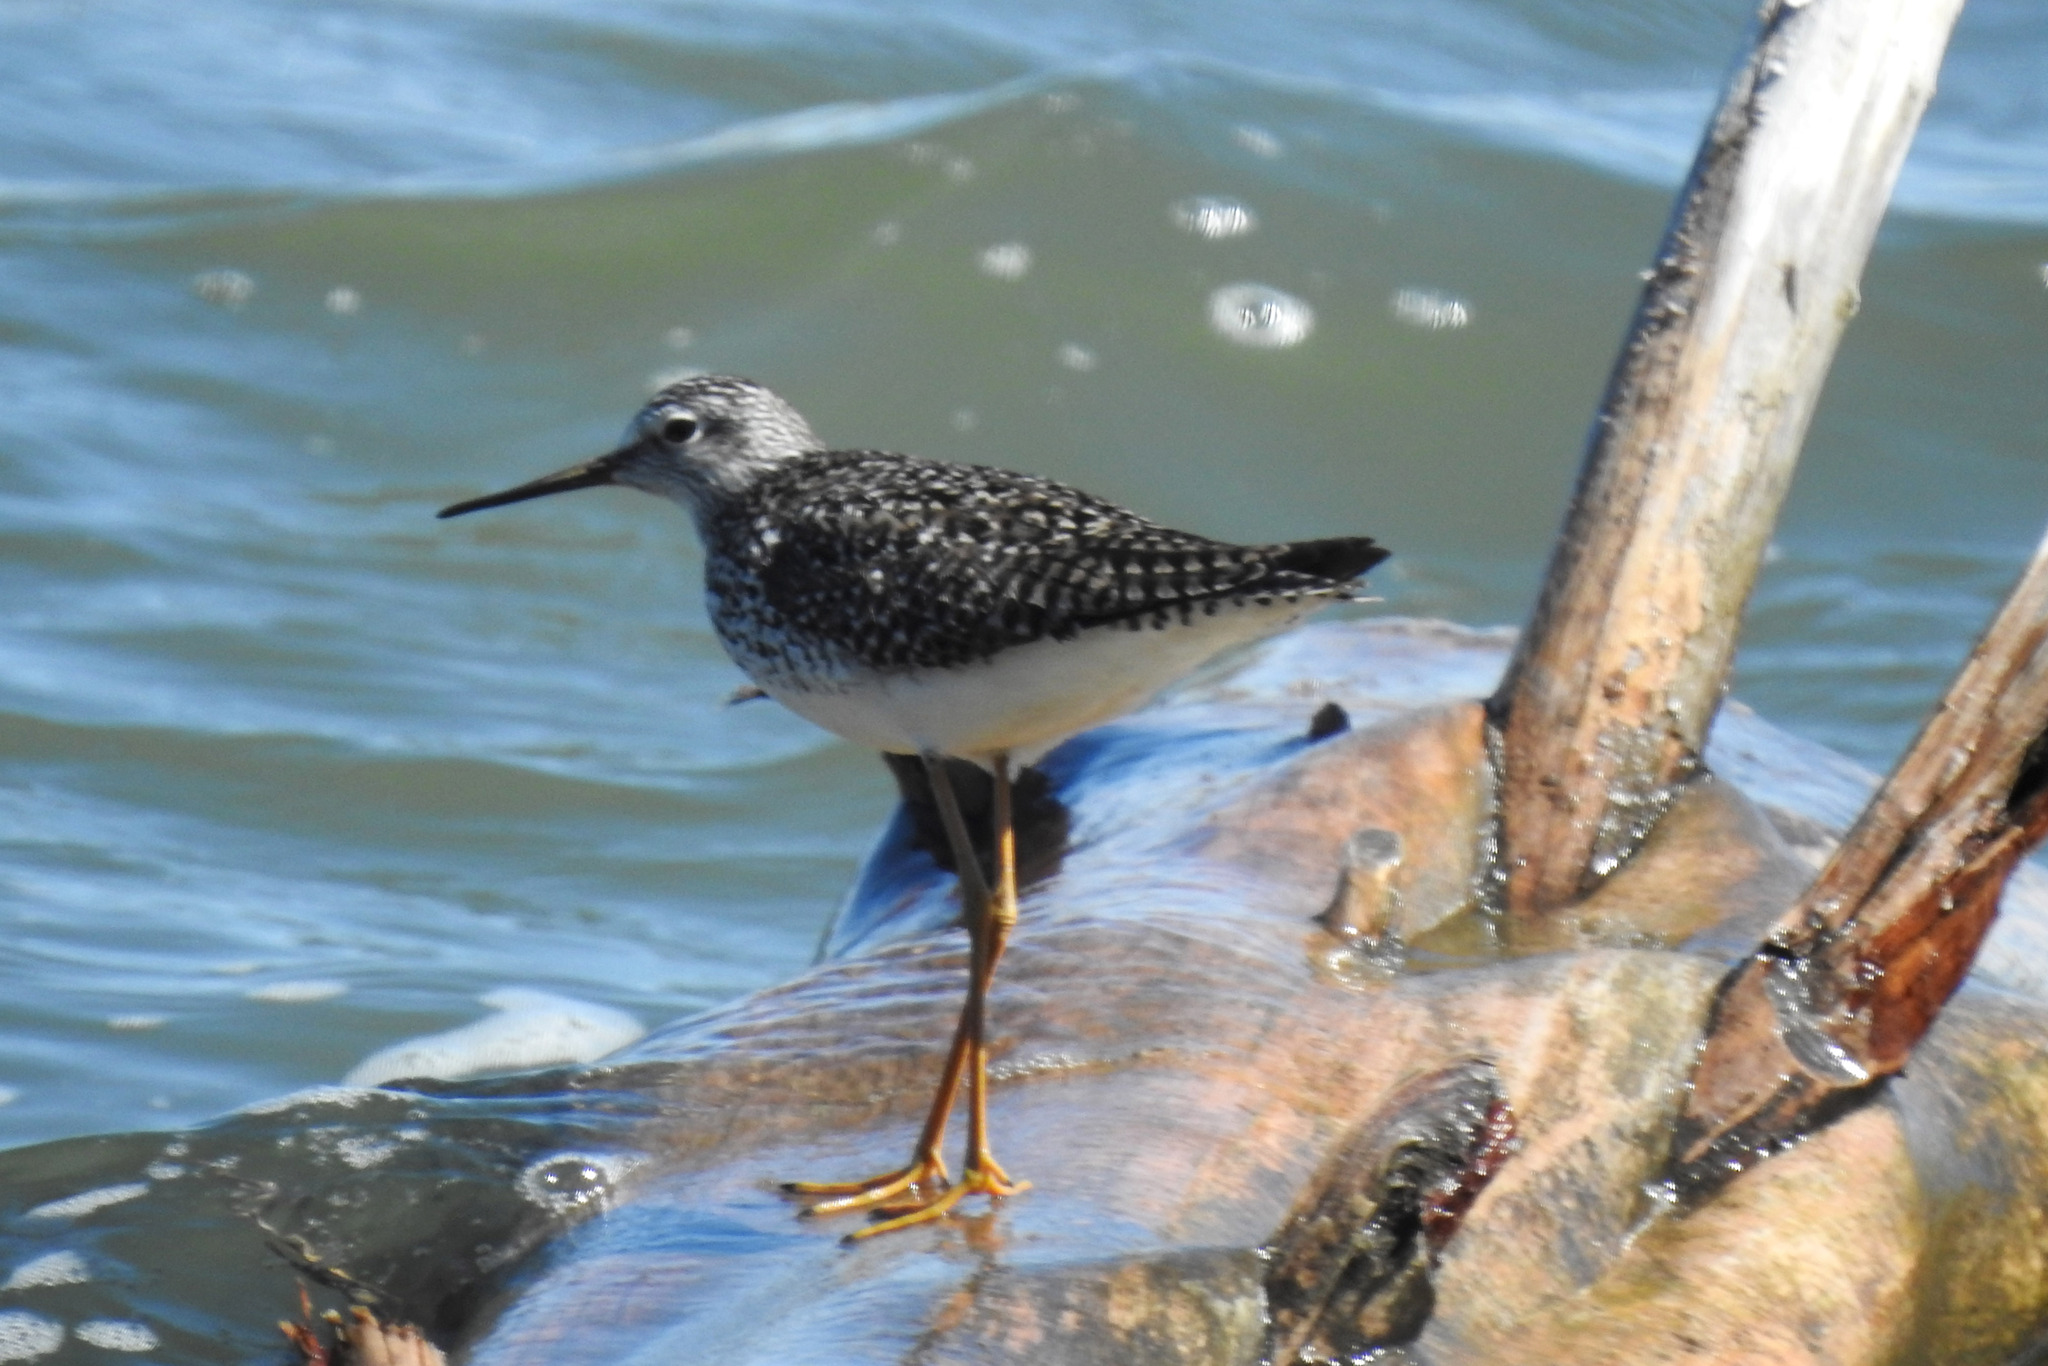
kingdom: Animalia
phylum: Chordata
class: Aves
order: Charadriiformes
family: Scolopacidae
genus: Tringa
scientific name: Tringa flavipes
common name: Lesser yellowlegs
